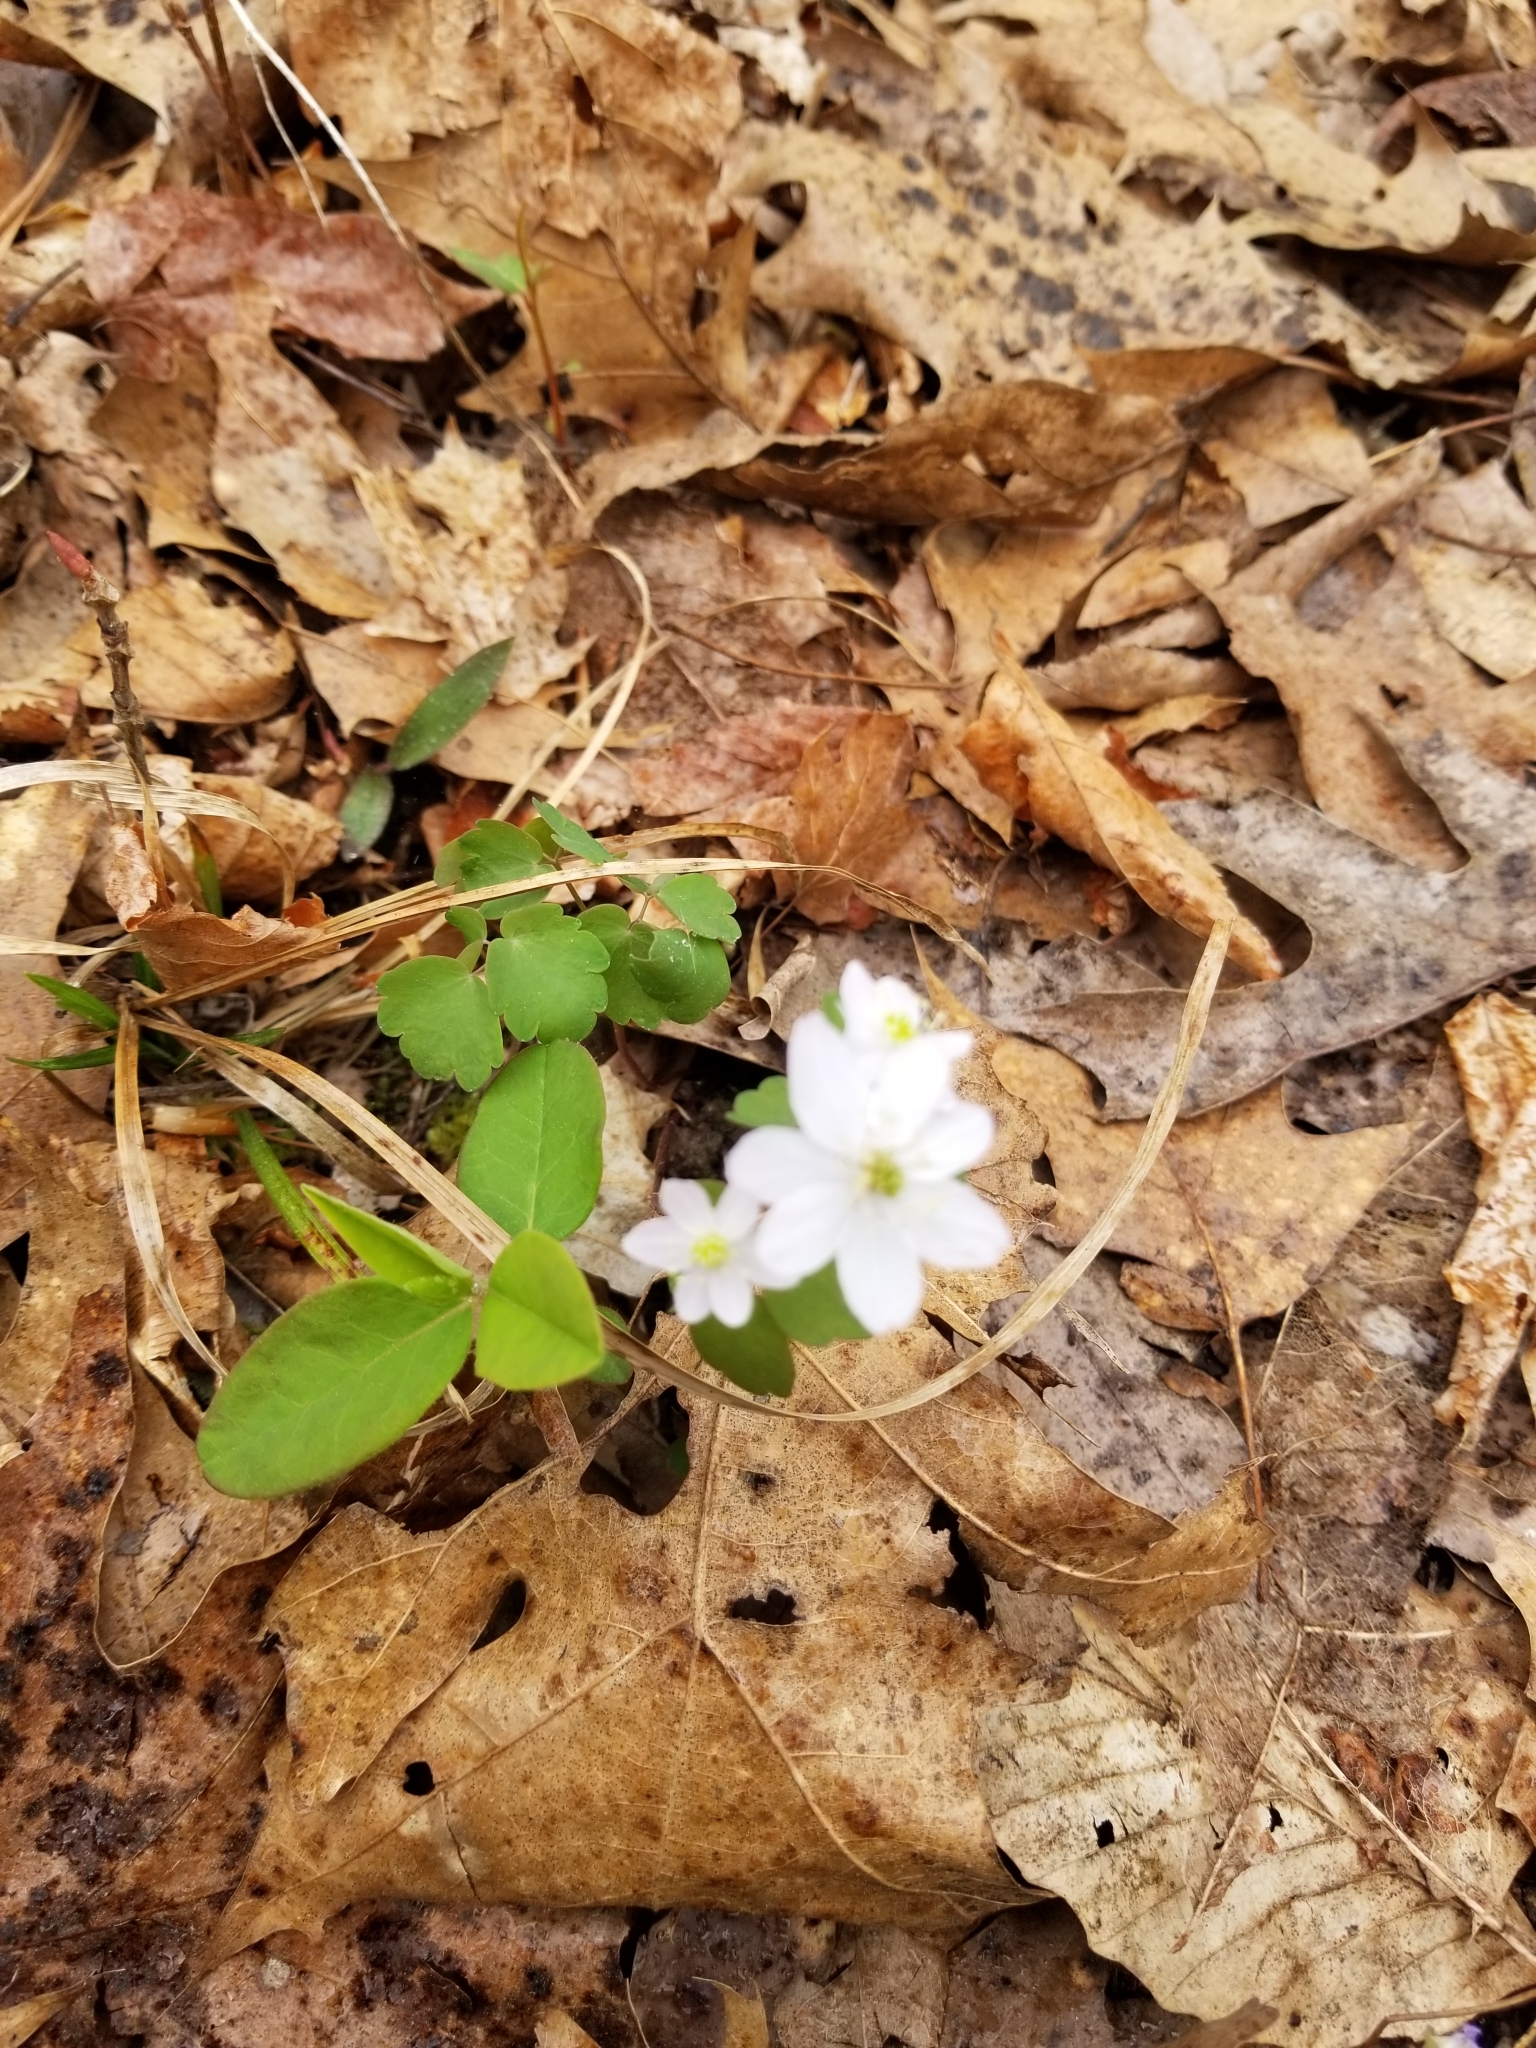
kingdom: Plantae
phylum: Tracheophyta
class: Magnoliopsida
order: Ranunculales
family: Ranunculaceae
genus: Thalictrum
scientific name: Thalictrum thalictroides
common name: Rue-anemone
